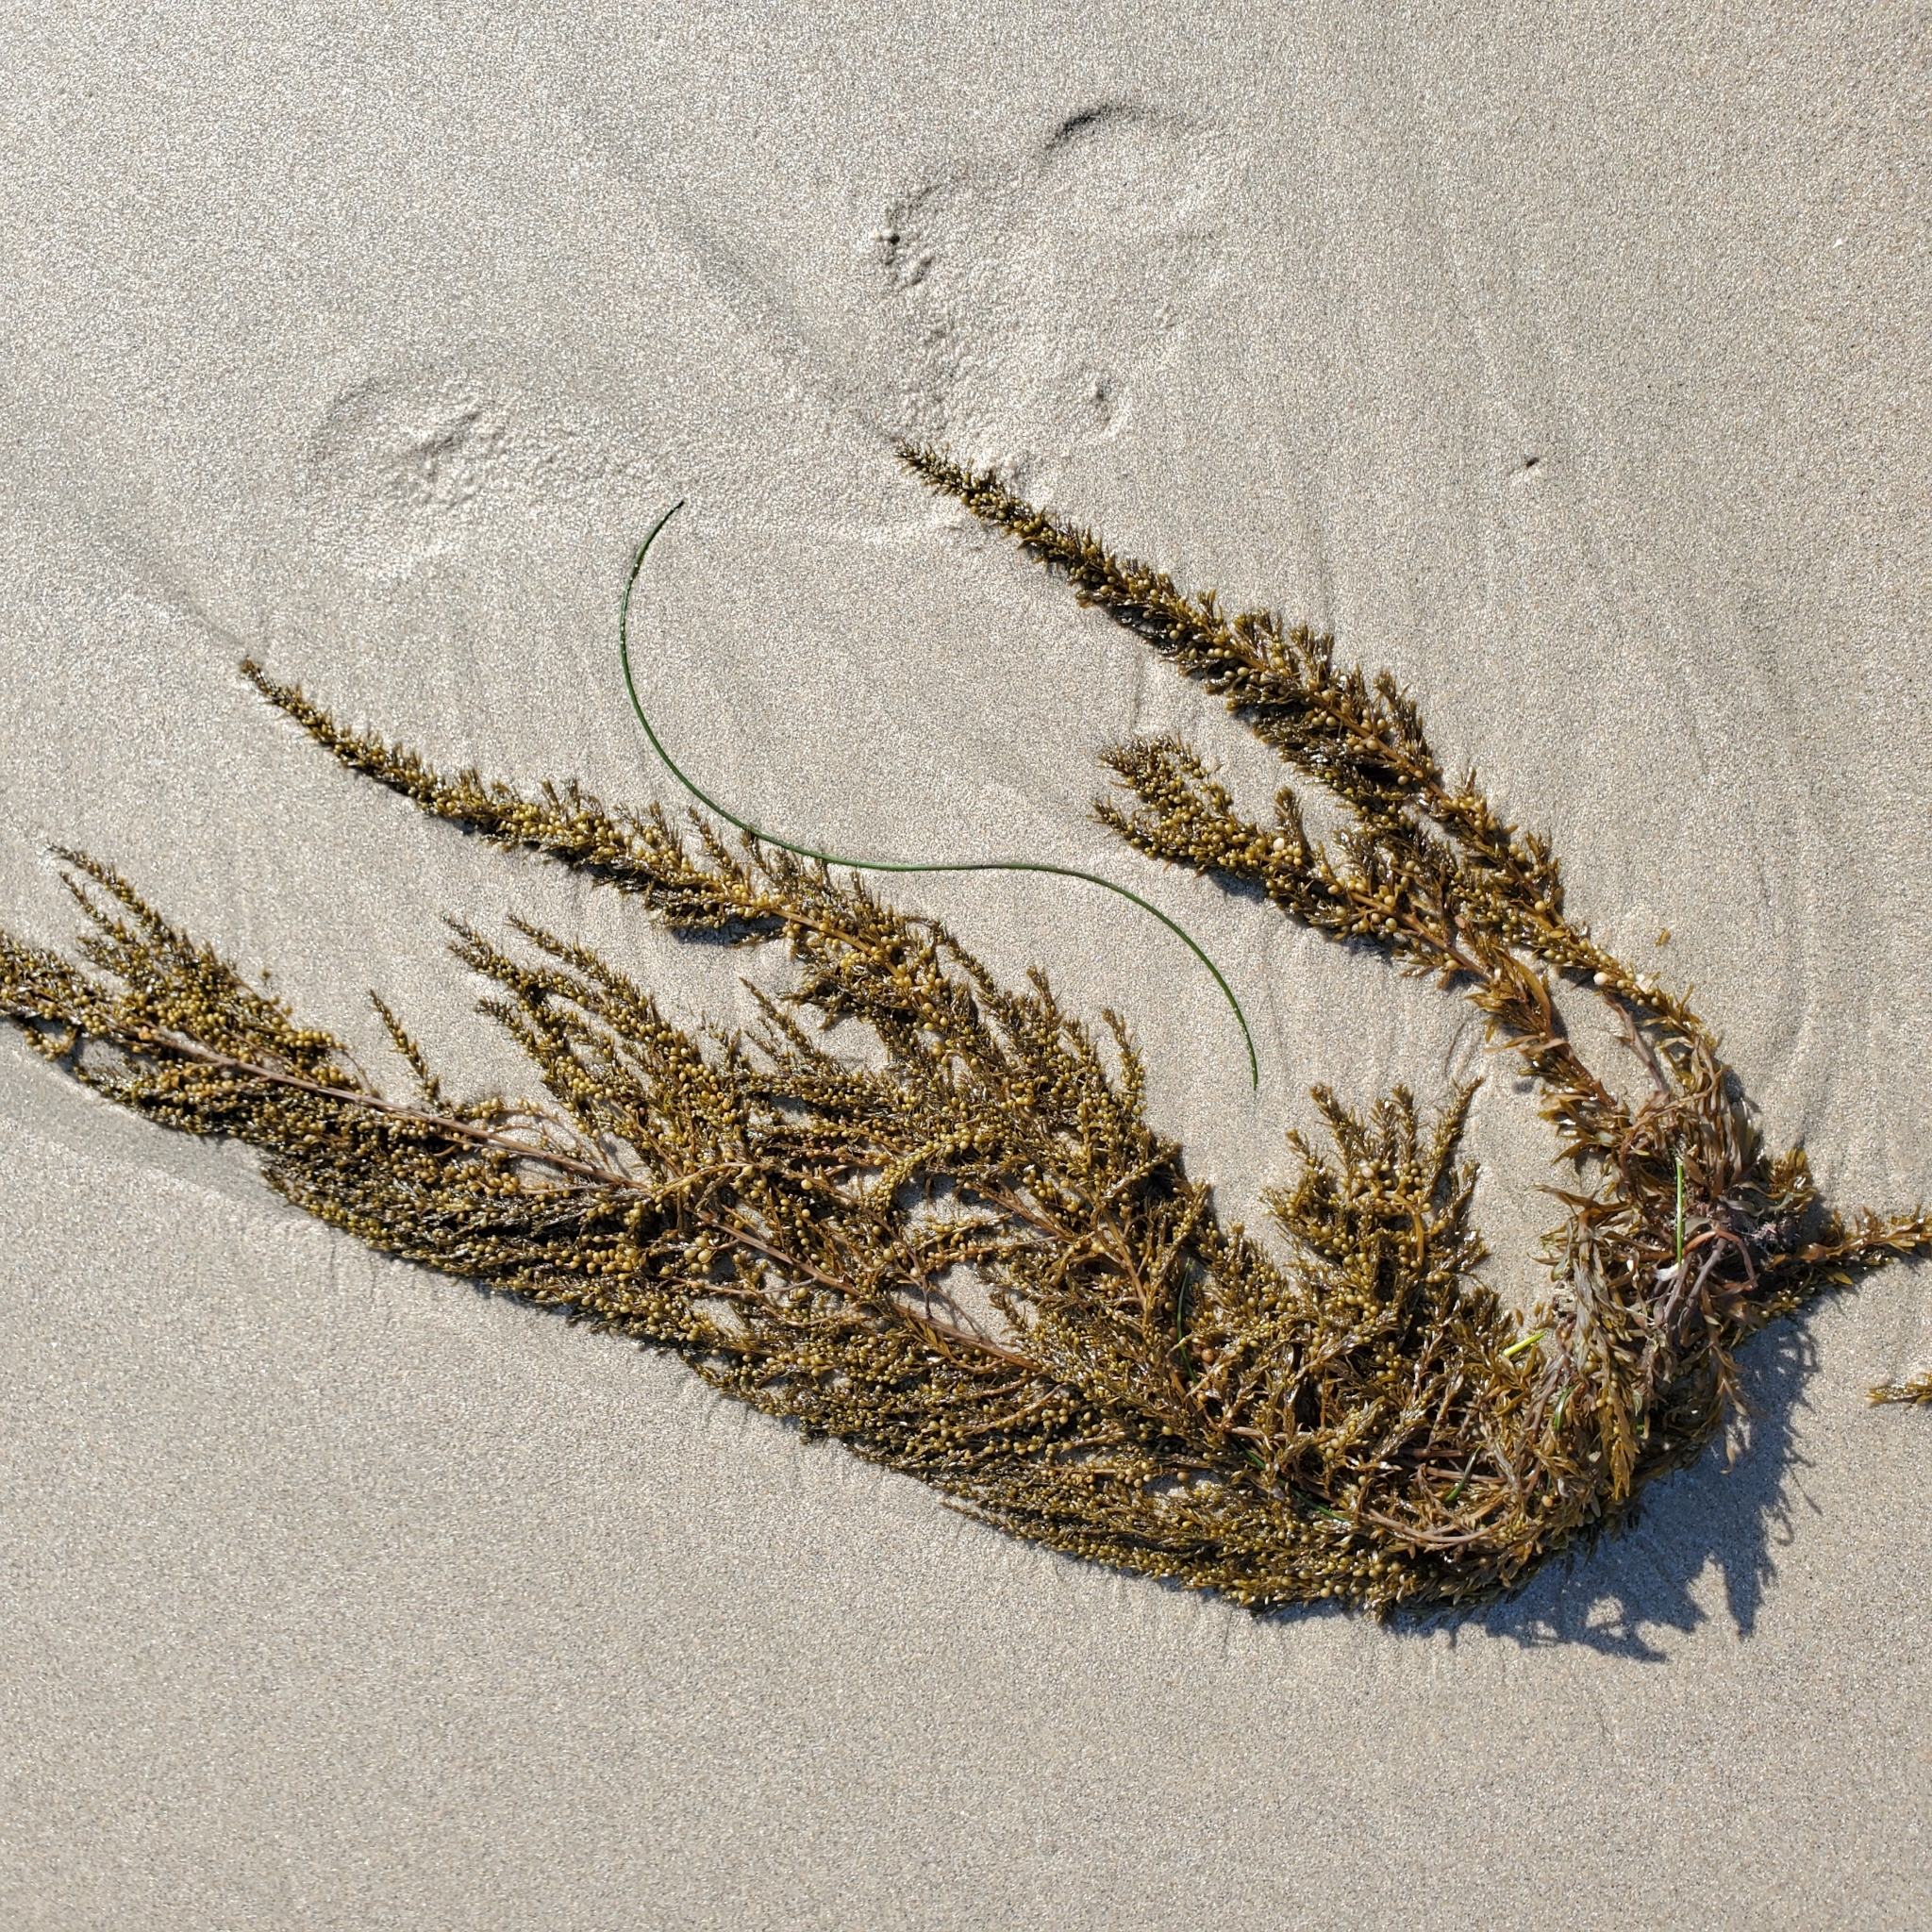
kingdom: Chromista
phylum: Ochrophyta
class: Phaeophyceae
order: Fucales
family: Sargassaceae
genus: Sargassum
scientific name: Sargassum muticum
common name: Japweed
